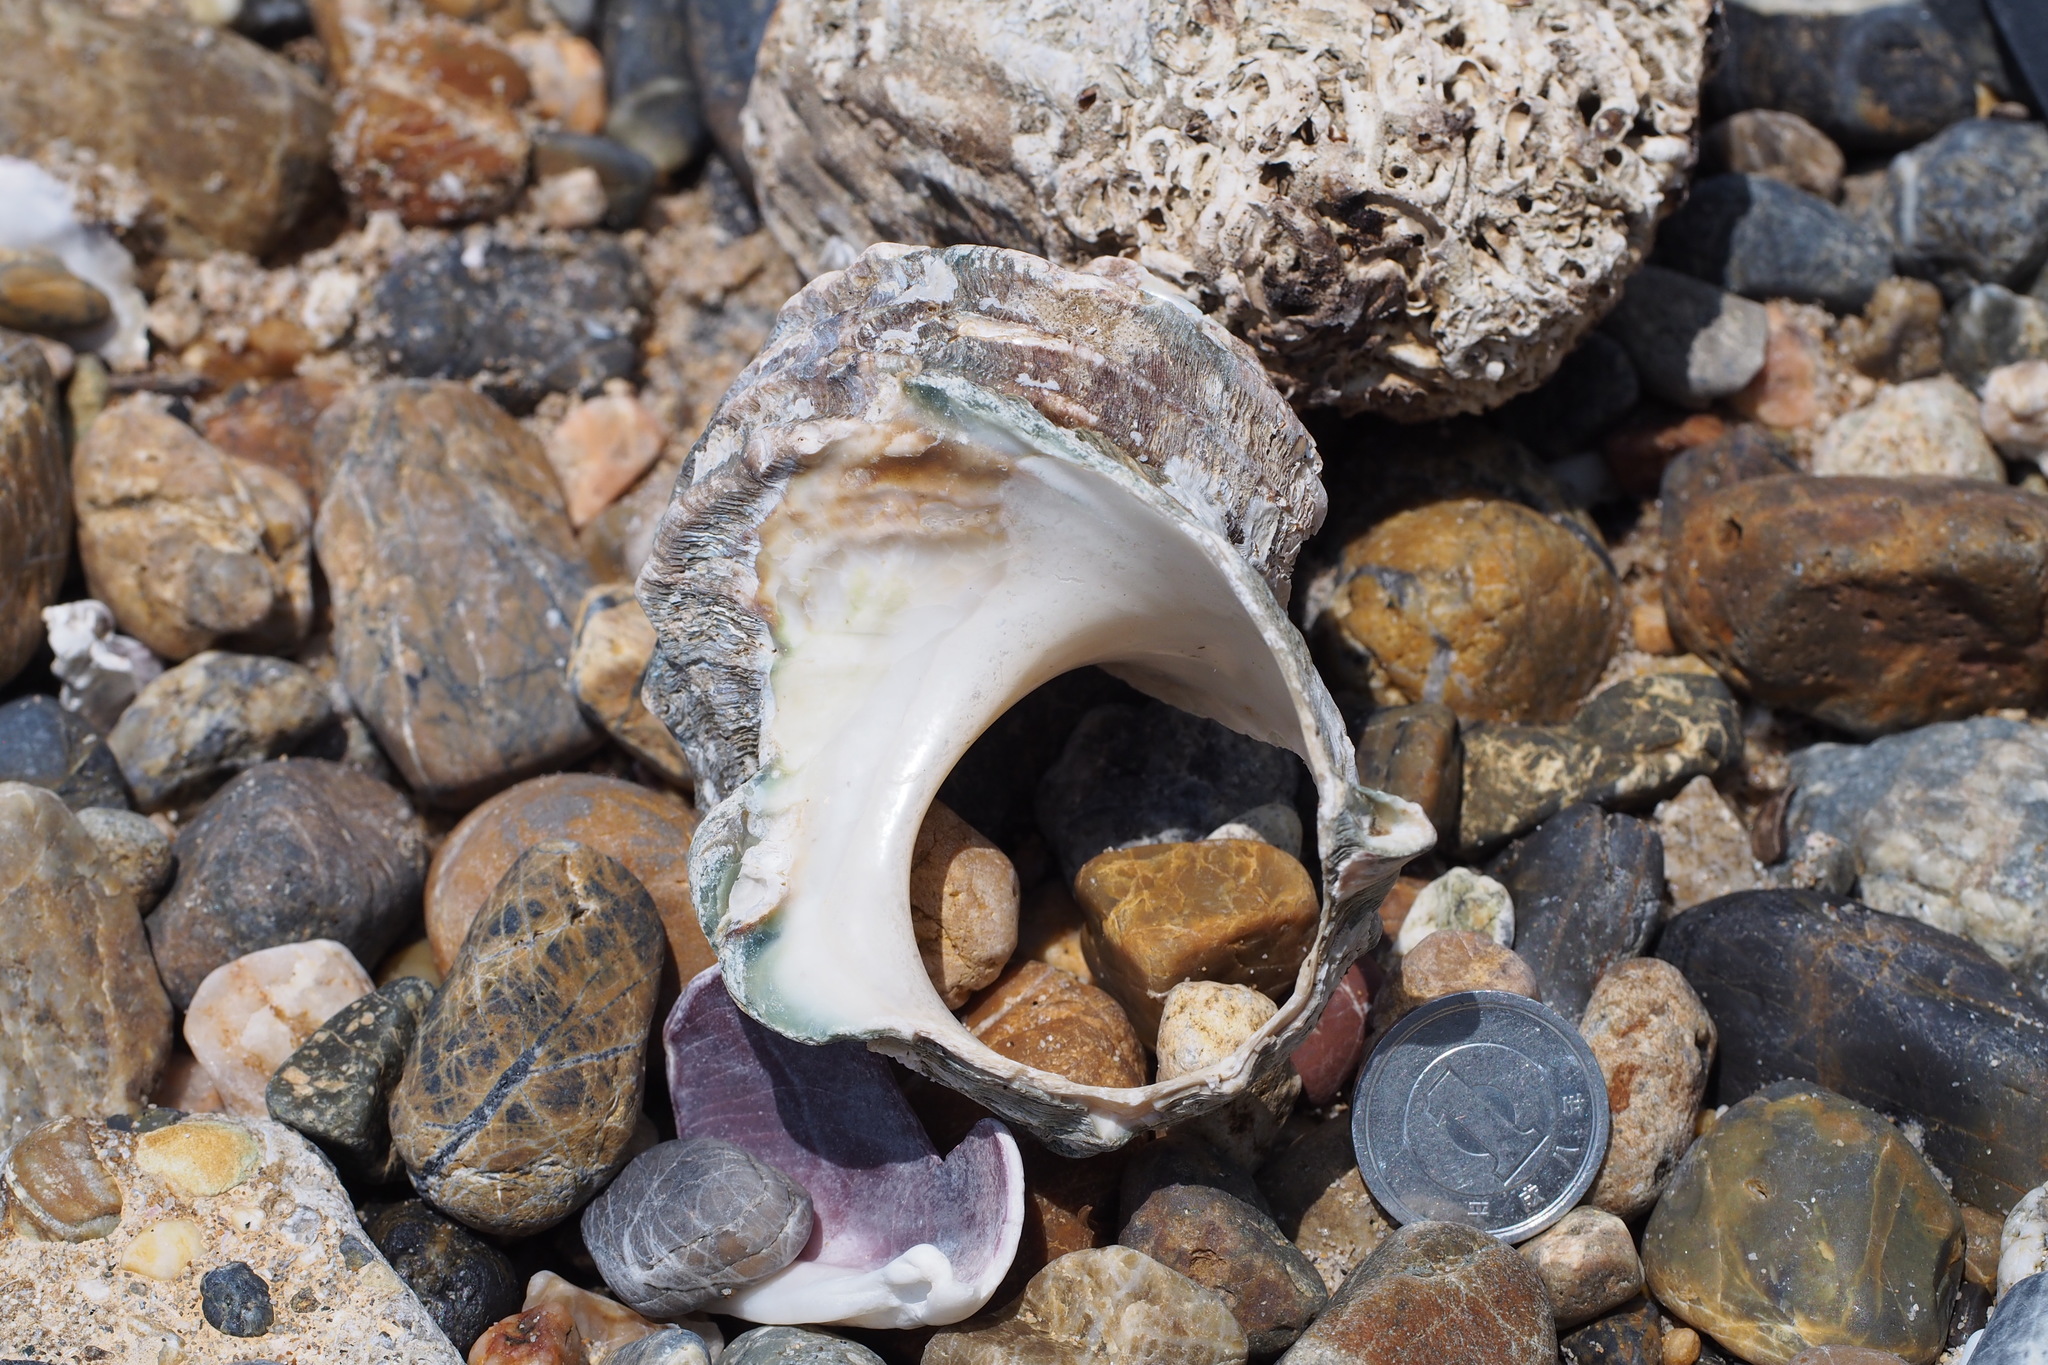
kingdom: Animalia
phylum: Mollusca
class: Gastropoda
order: Trochida
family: Turbinidae
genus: Turbo
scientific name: Turbo sazae
